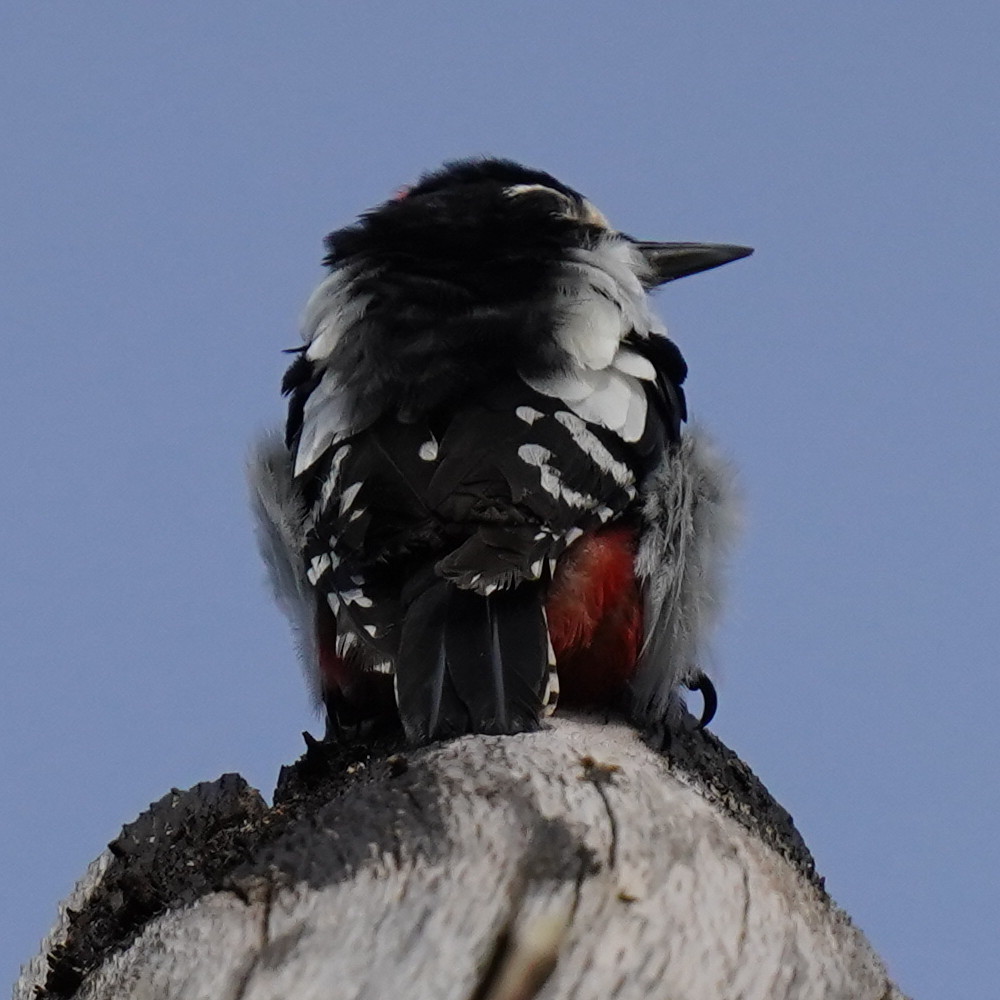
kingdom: Animalia
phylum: Chordata
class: Aves
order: Piciformes
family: Picidae
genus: Dendrocopos
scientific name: Dendrocopos major
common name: Great spotted woodpecker
